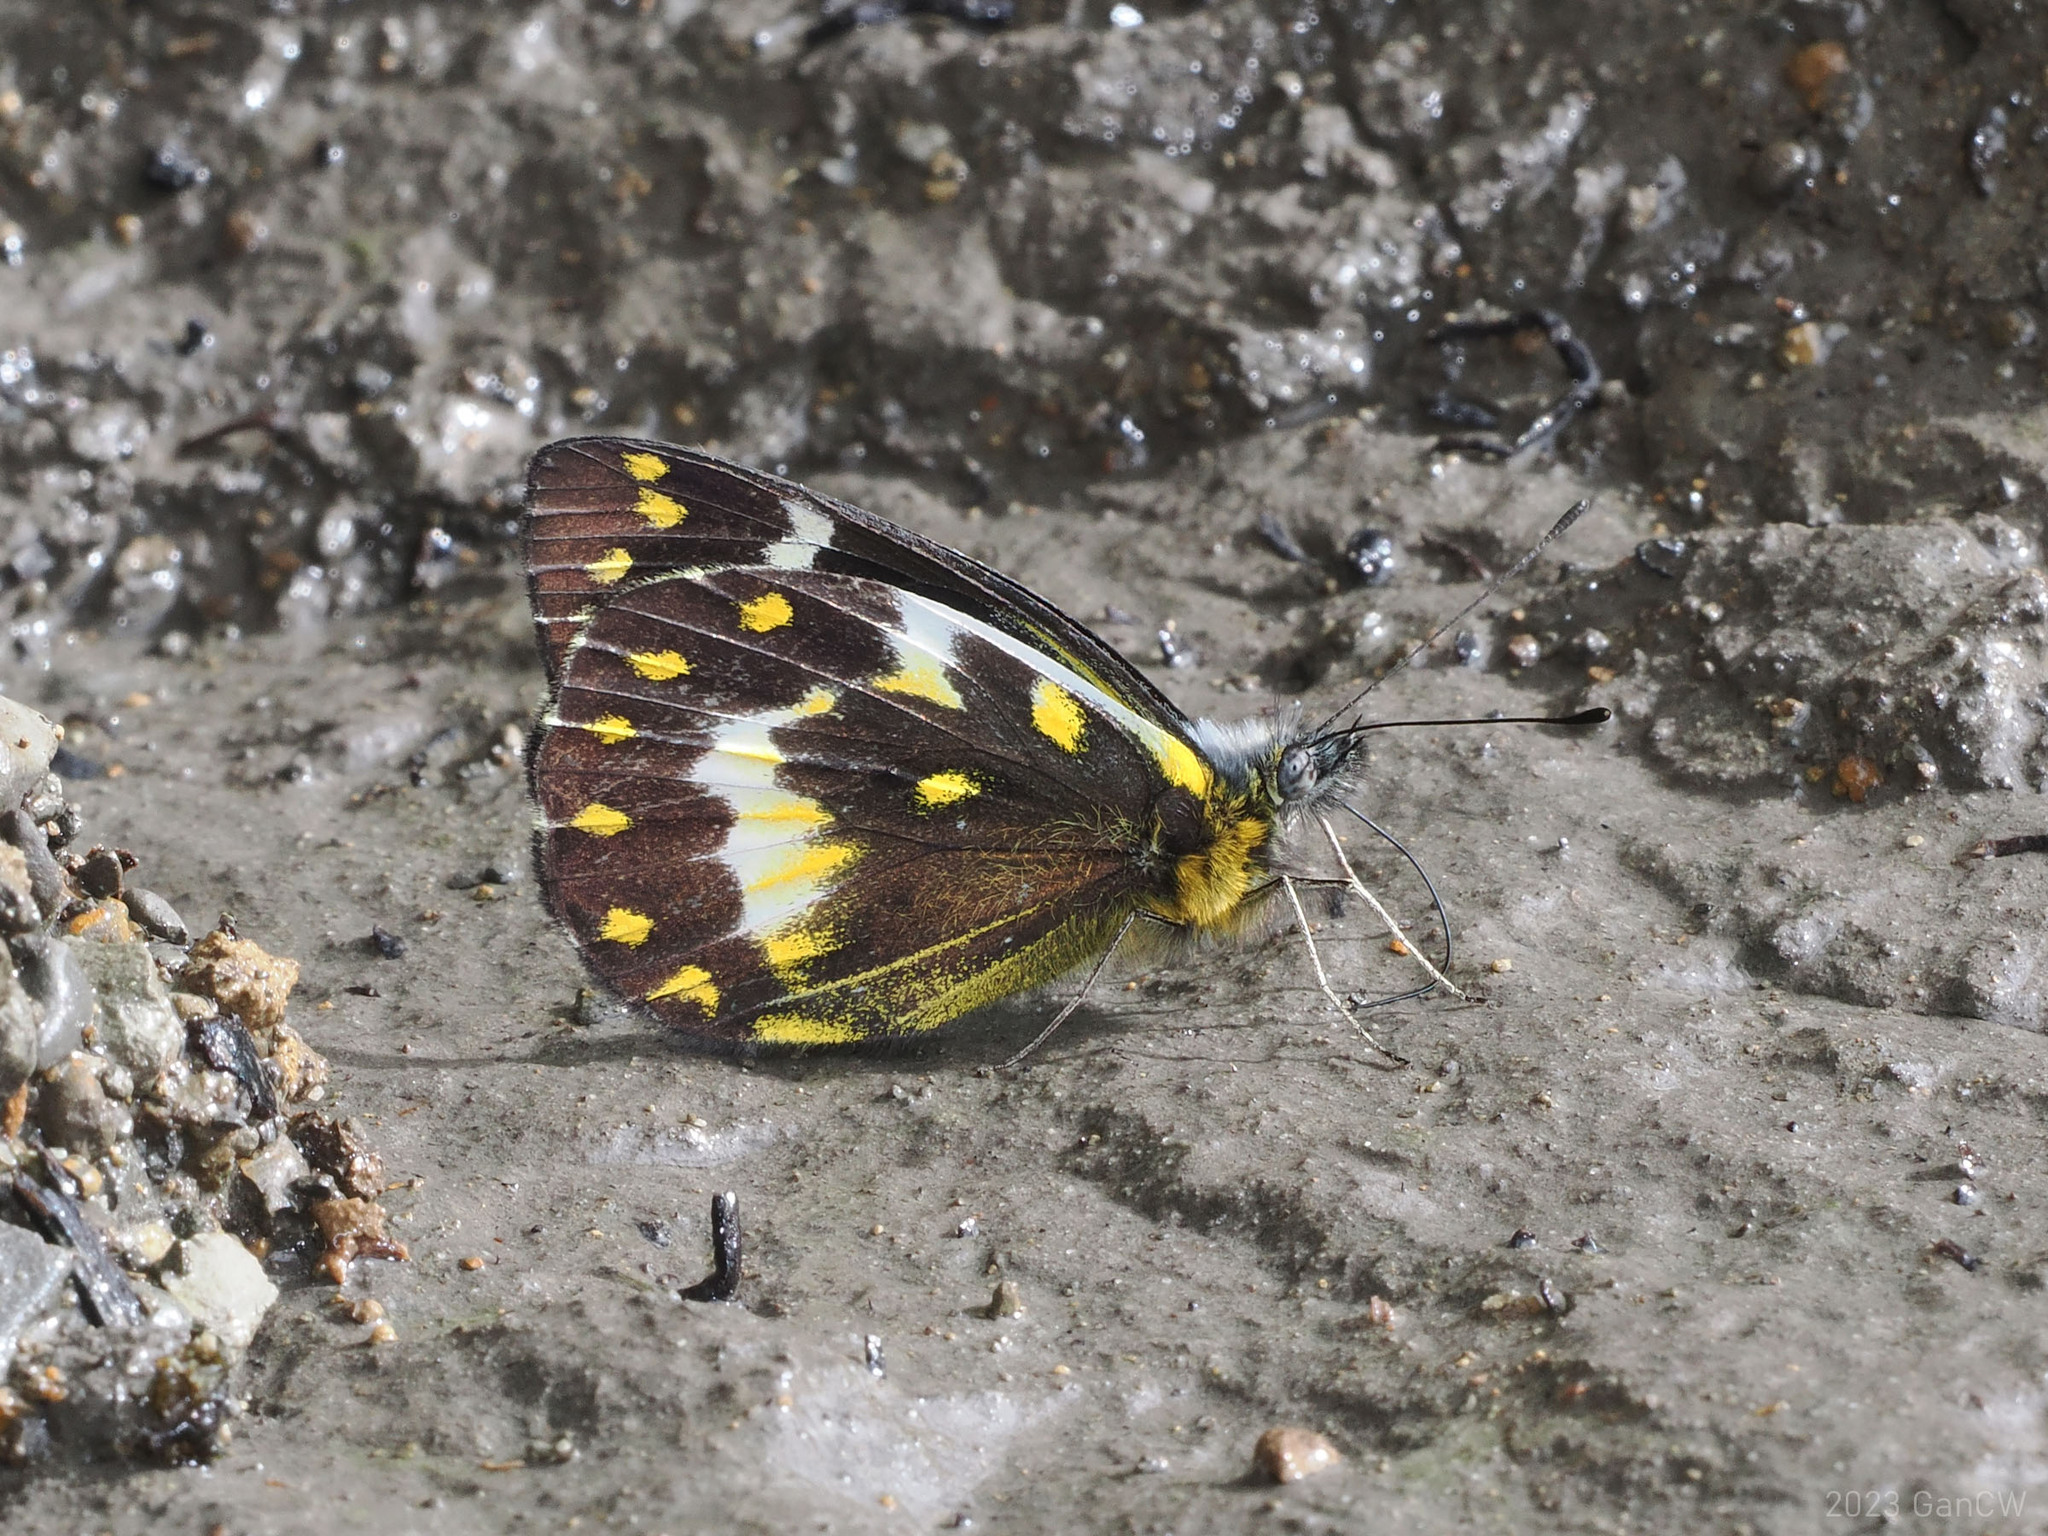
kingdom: Animalia
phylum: Arthropoda
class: Insecta
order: Lepidoptera
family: Pieridae
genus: Delias
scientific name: Delias oktanglap
